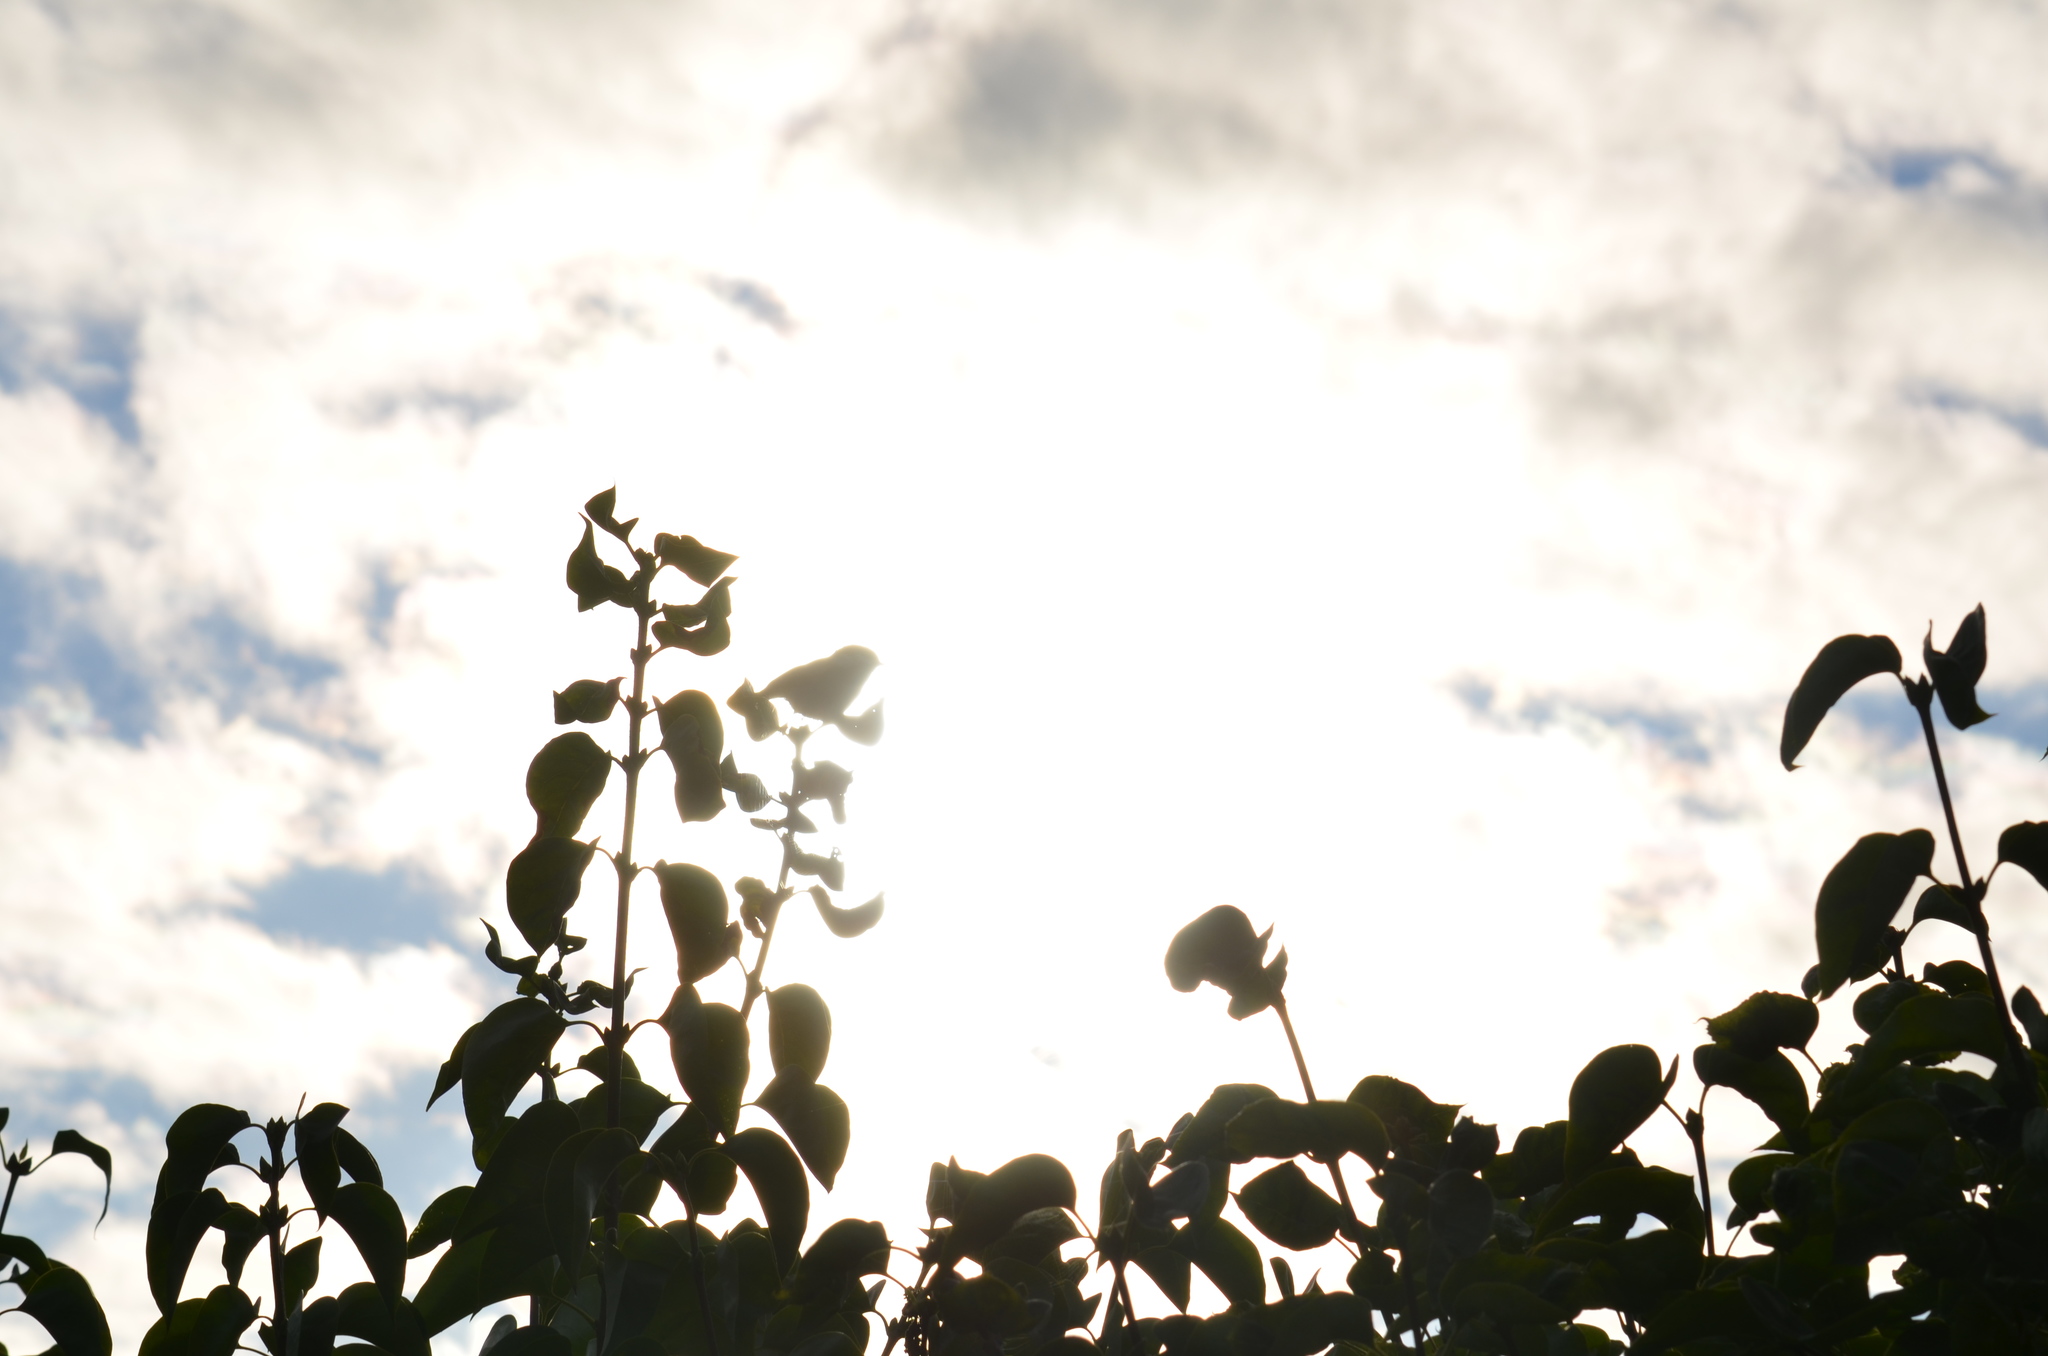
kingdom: Animalia
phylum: Chordata
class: Aves
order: Passeriformes
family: Paridae
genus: Poecile
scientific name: Poecile rufescens
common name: Chestnut-backed chickadee
